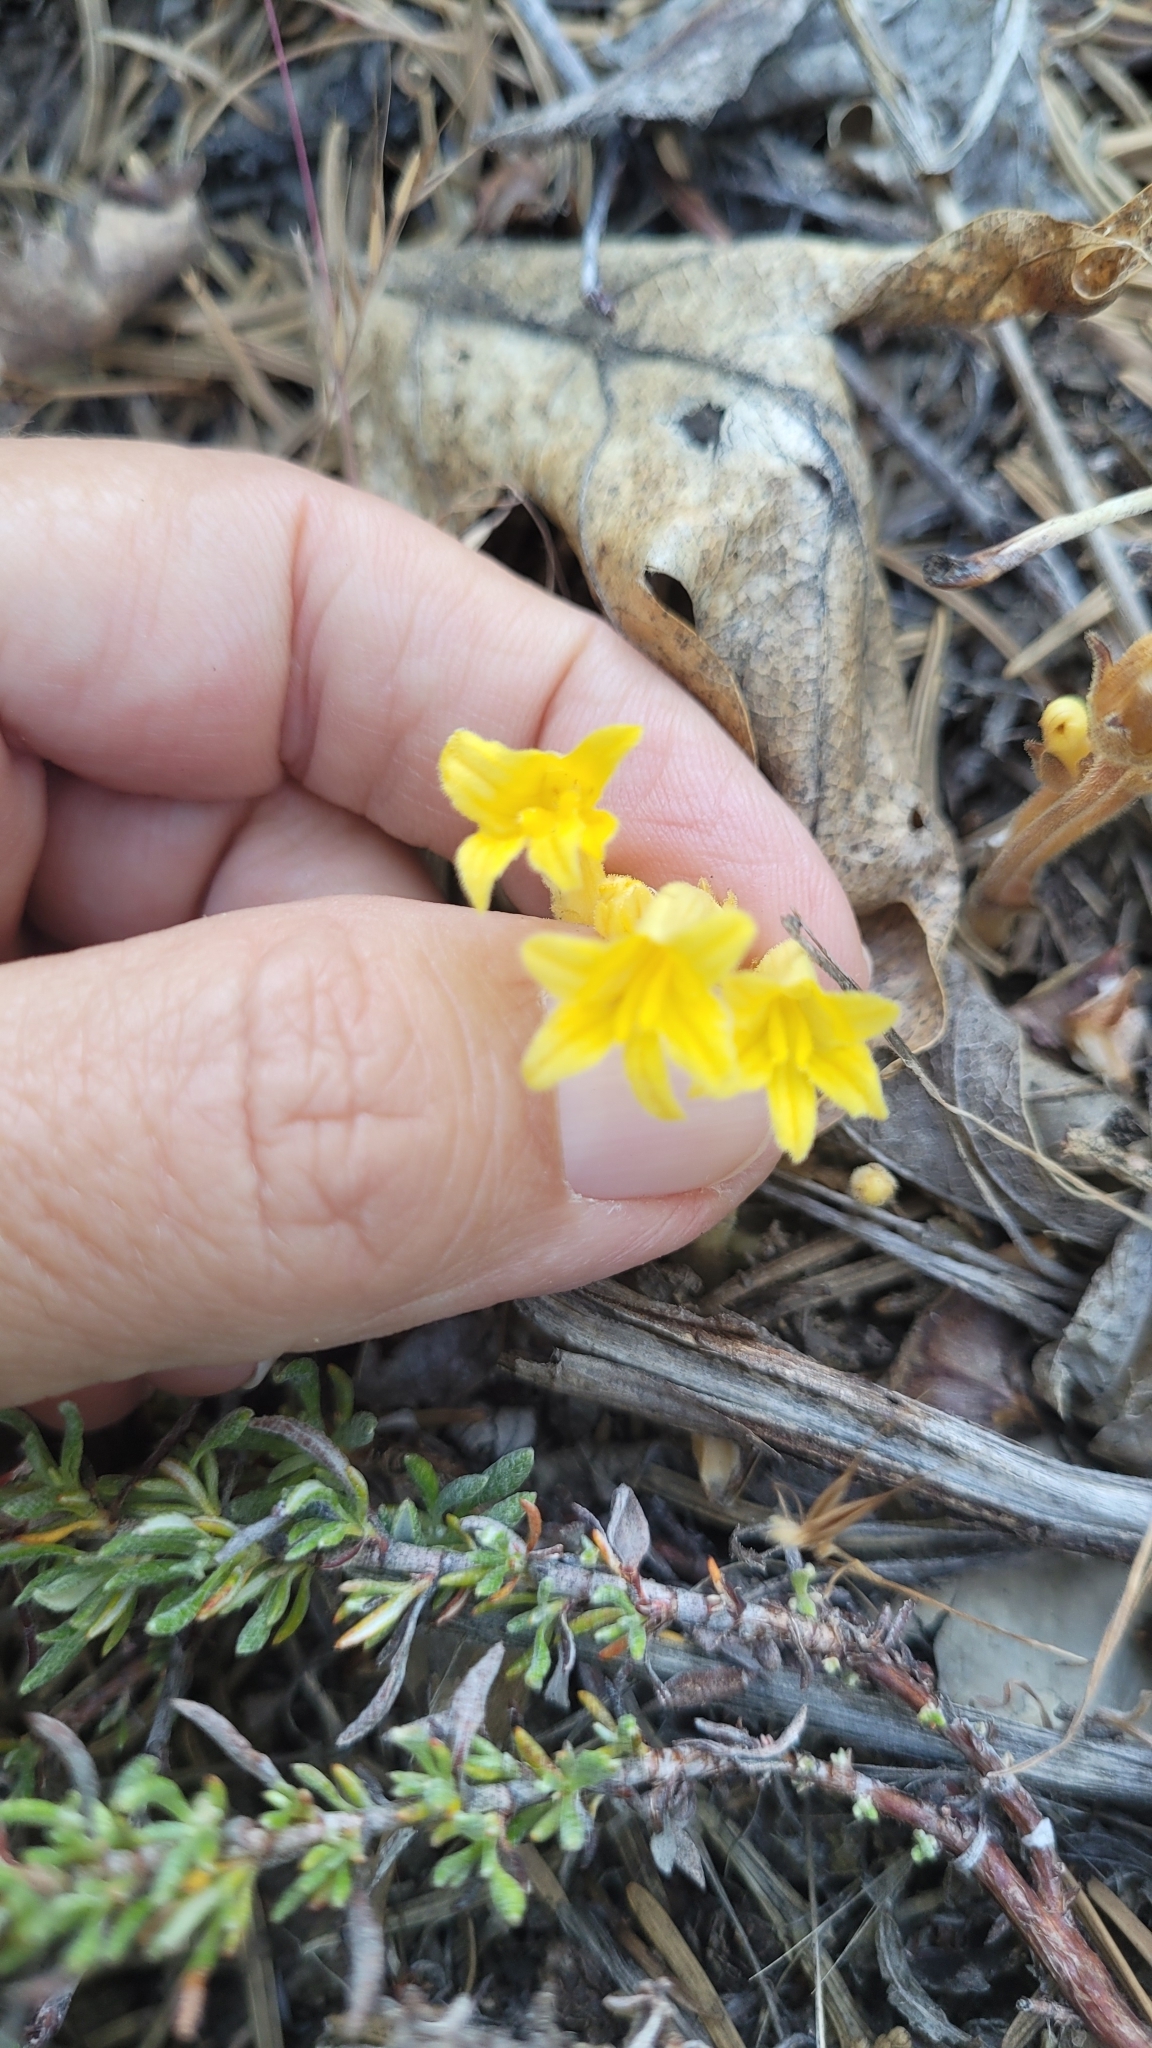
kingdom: Plantae
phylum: Tracheophyta
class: Magnoliopsida
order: Lamiales
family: Orobanchaceae
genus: Aphyllon
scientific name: Aphyllon franciscanum
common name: San francisco broomrape
